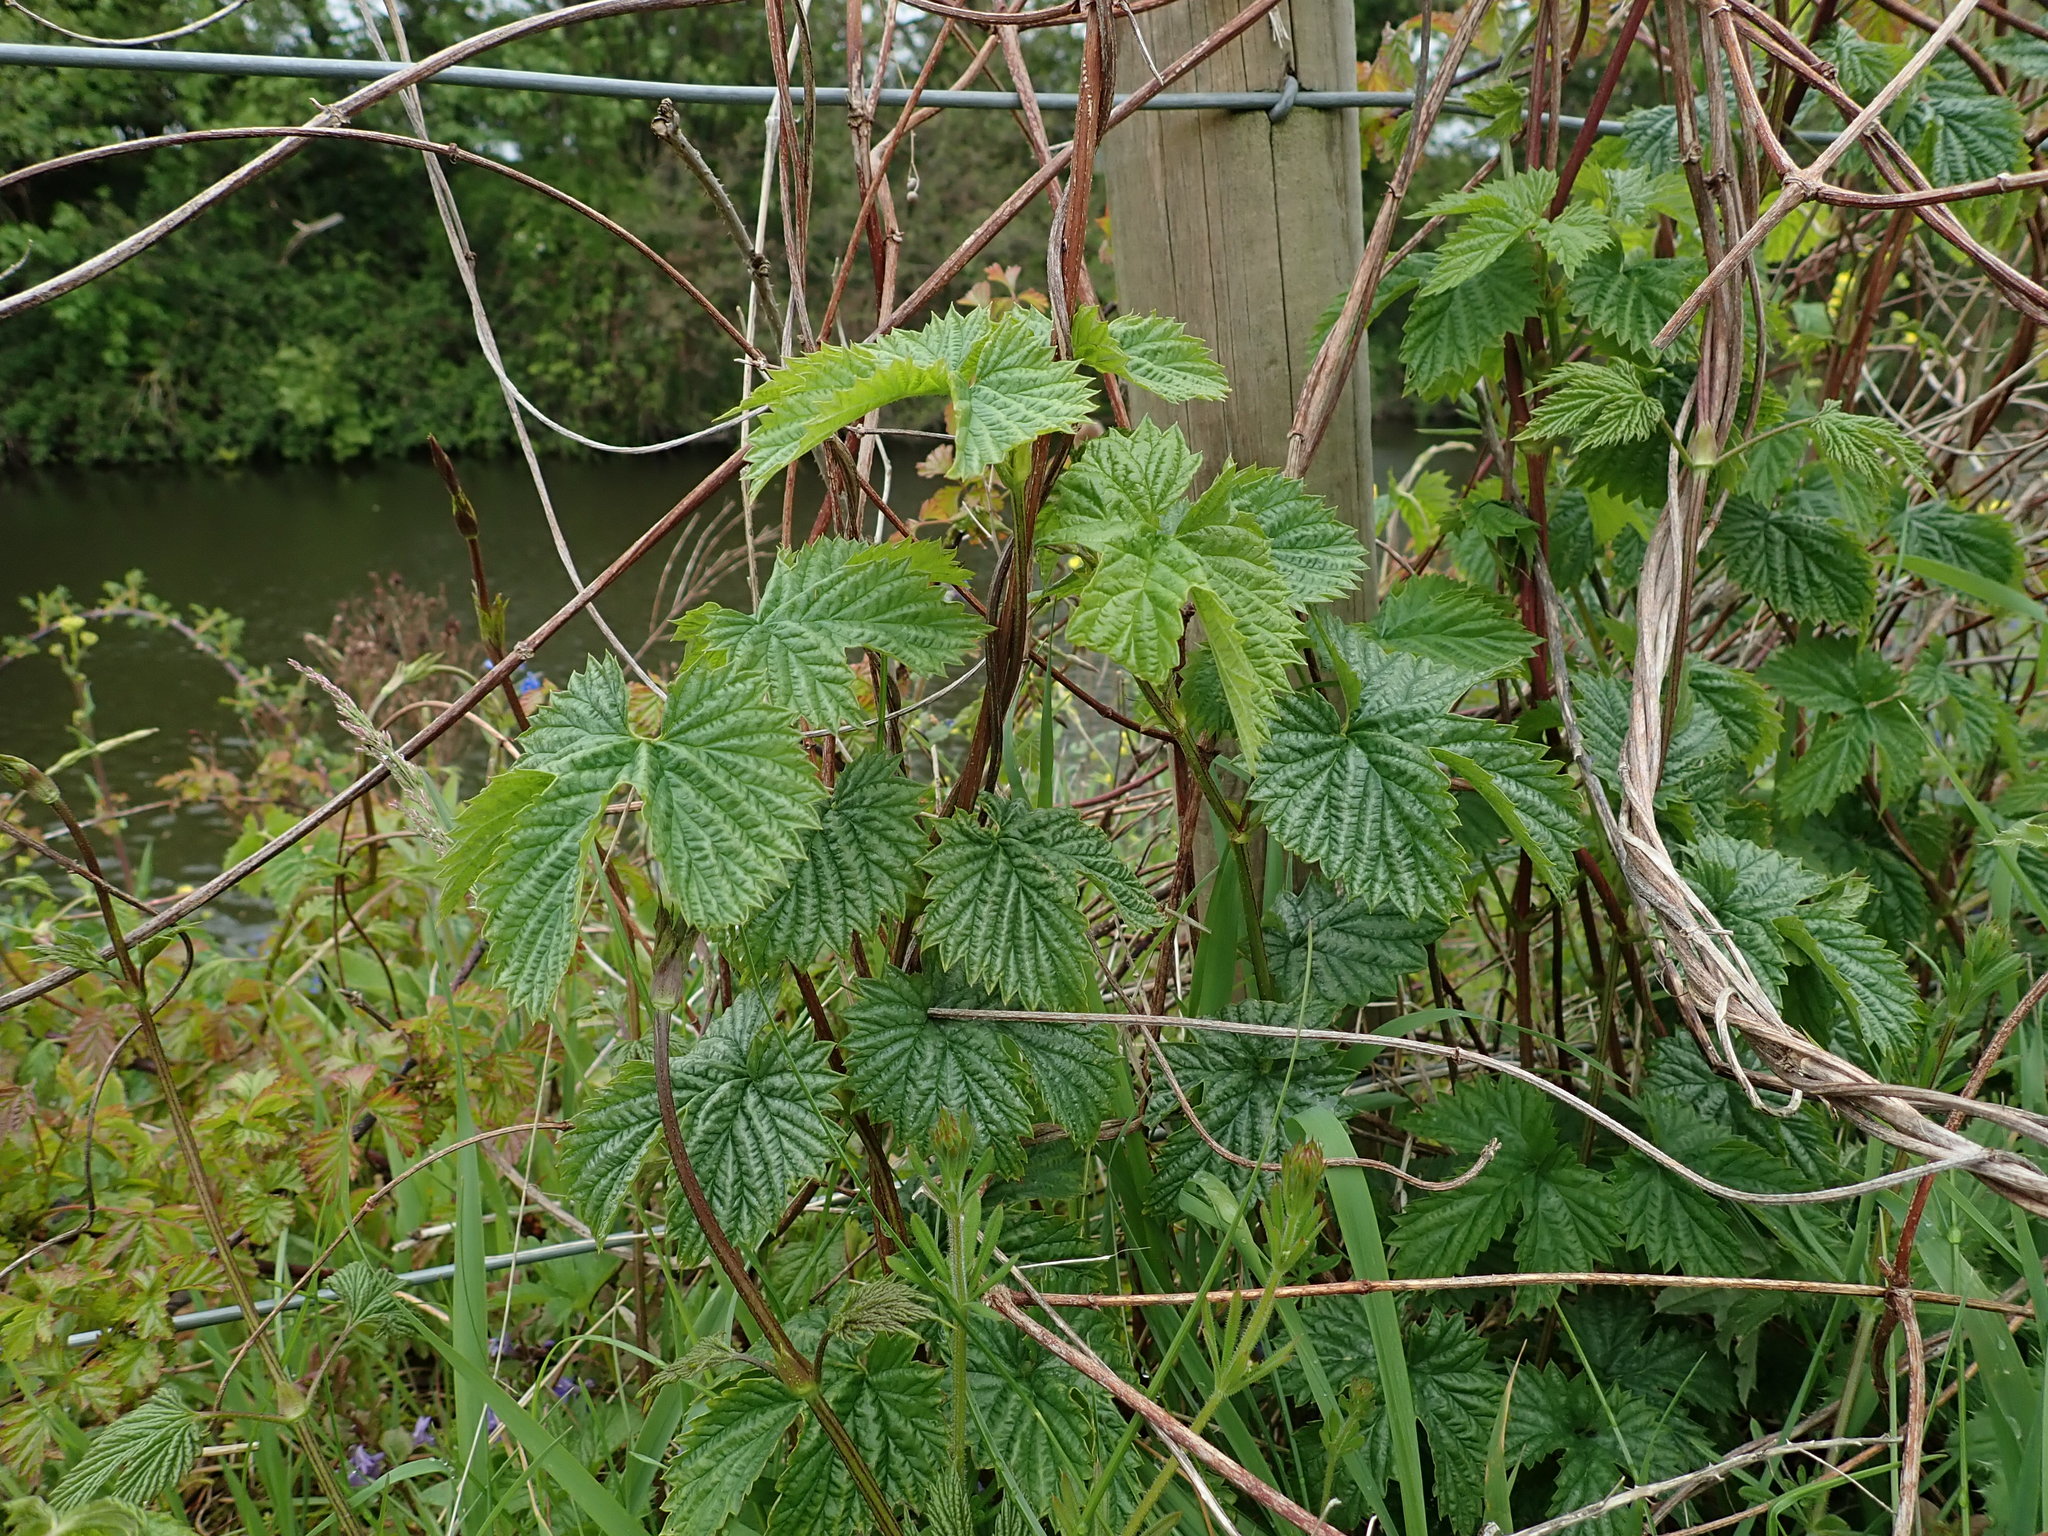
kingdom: Plantae
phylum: Tracheophyta
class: Magnoliopsida
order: Rosales
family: Cannabaceae
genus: Humulus
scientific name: Humulus lupulus
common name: Hop
